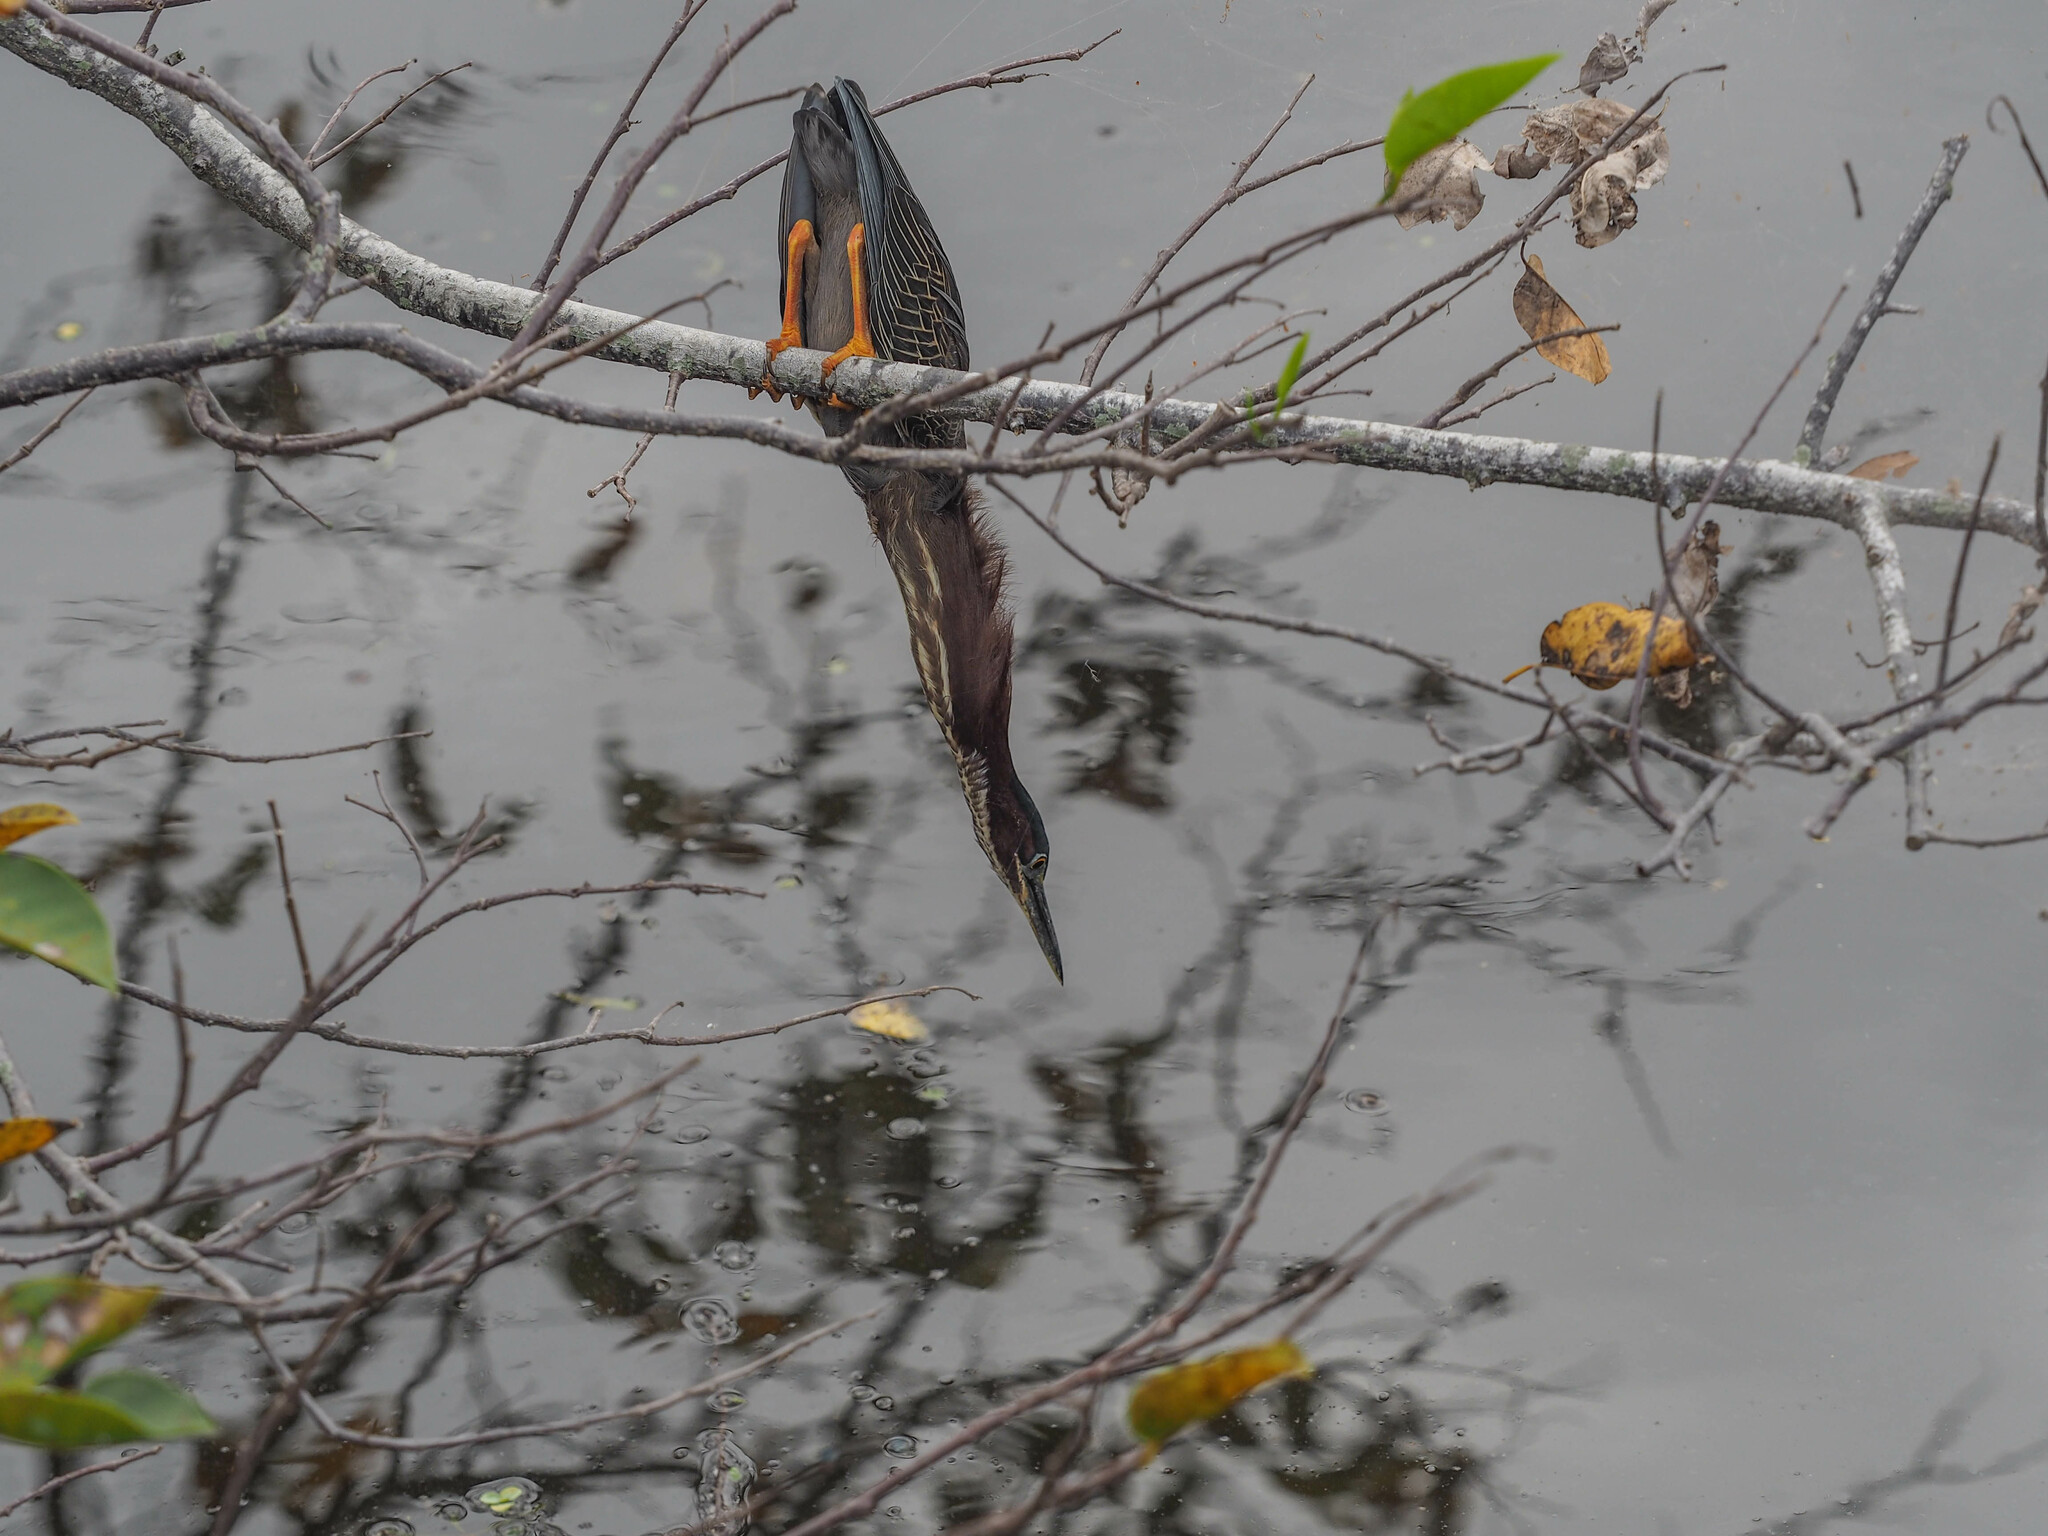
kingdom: Animalia
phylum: Chordata
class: Aves
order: Pelecaniformes
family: Ardeidae
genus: Butorides
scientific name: Butorides virescens
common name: Green heron
